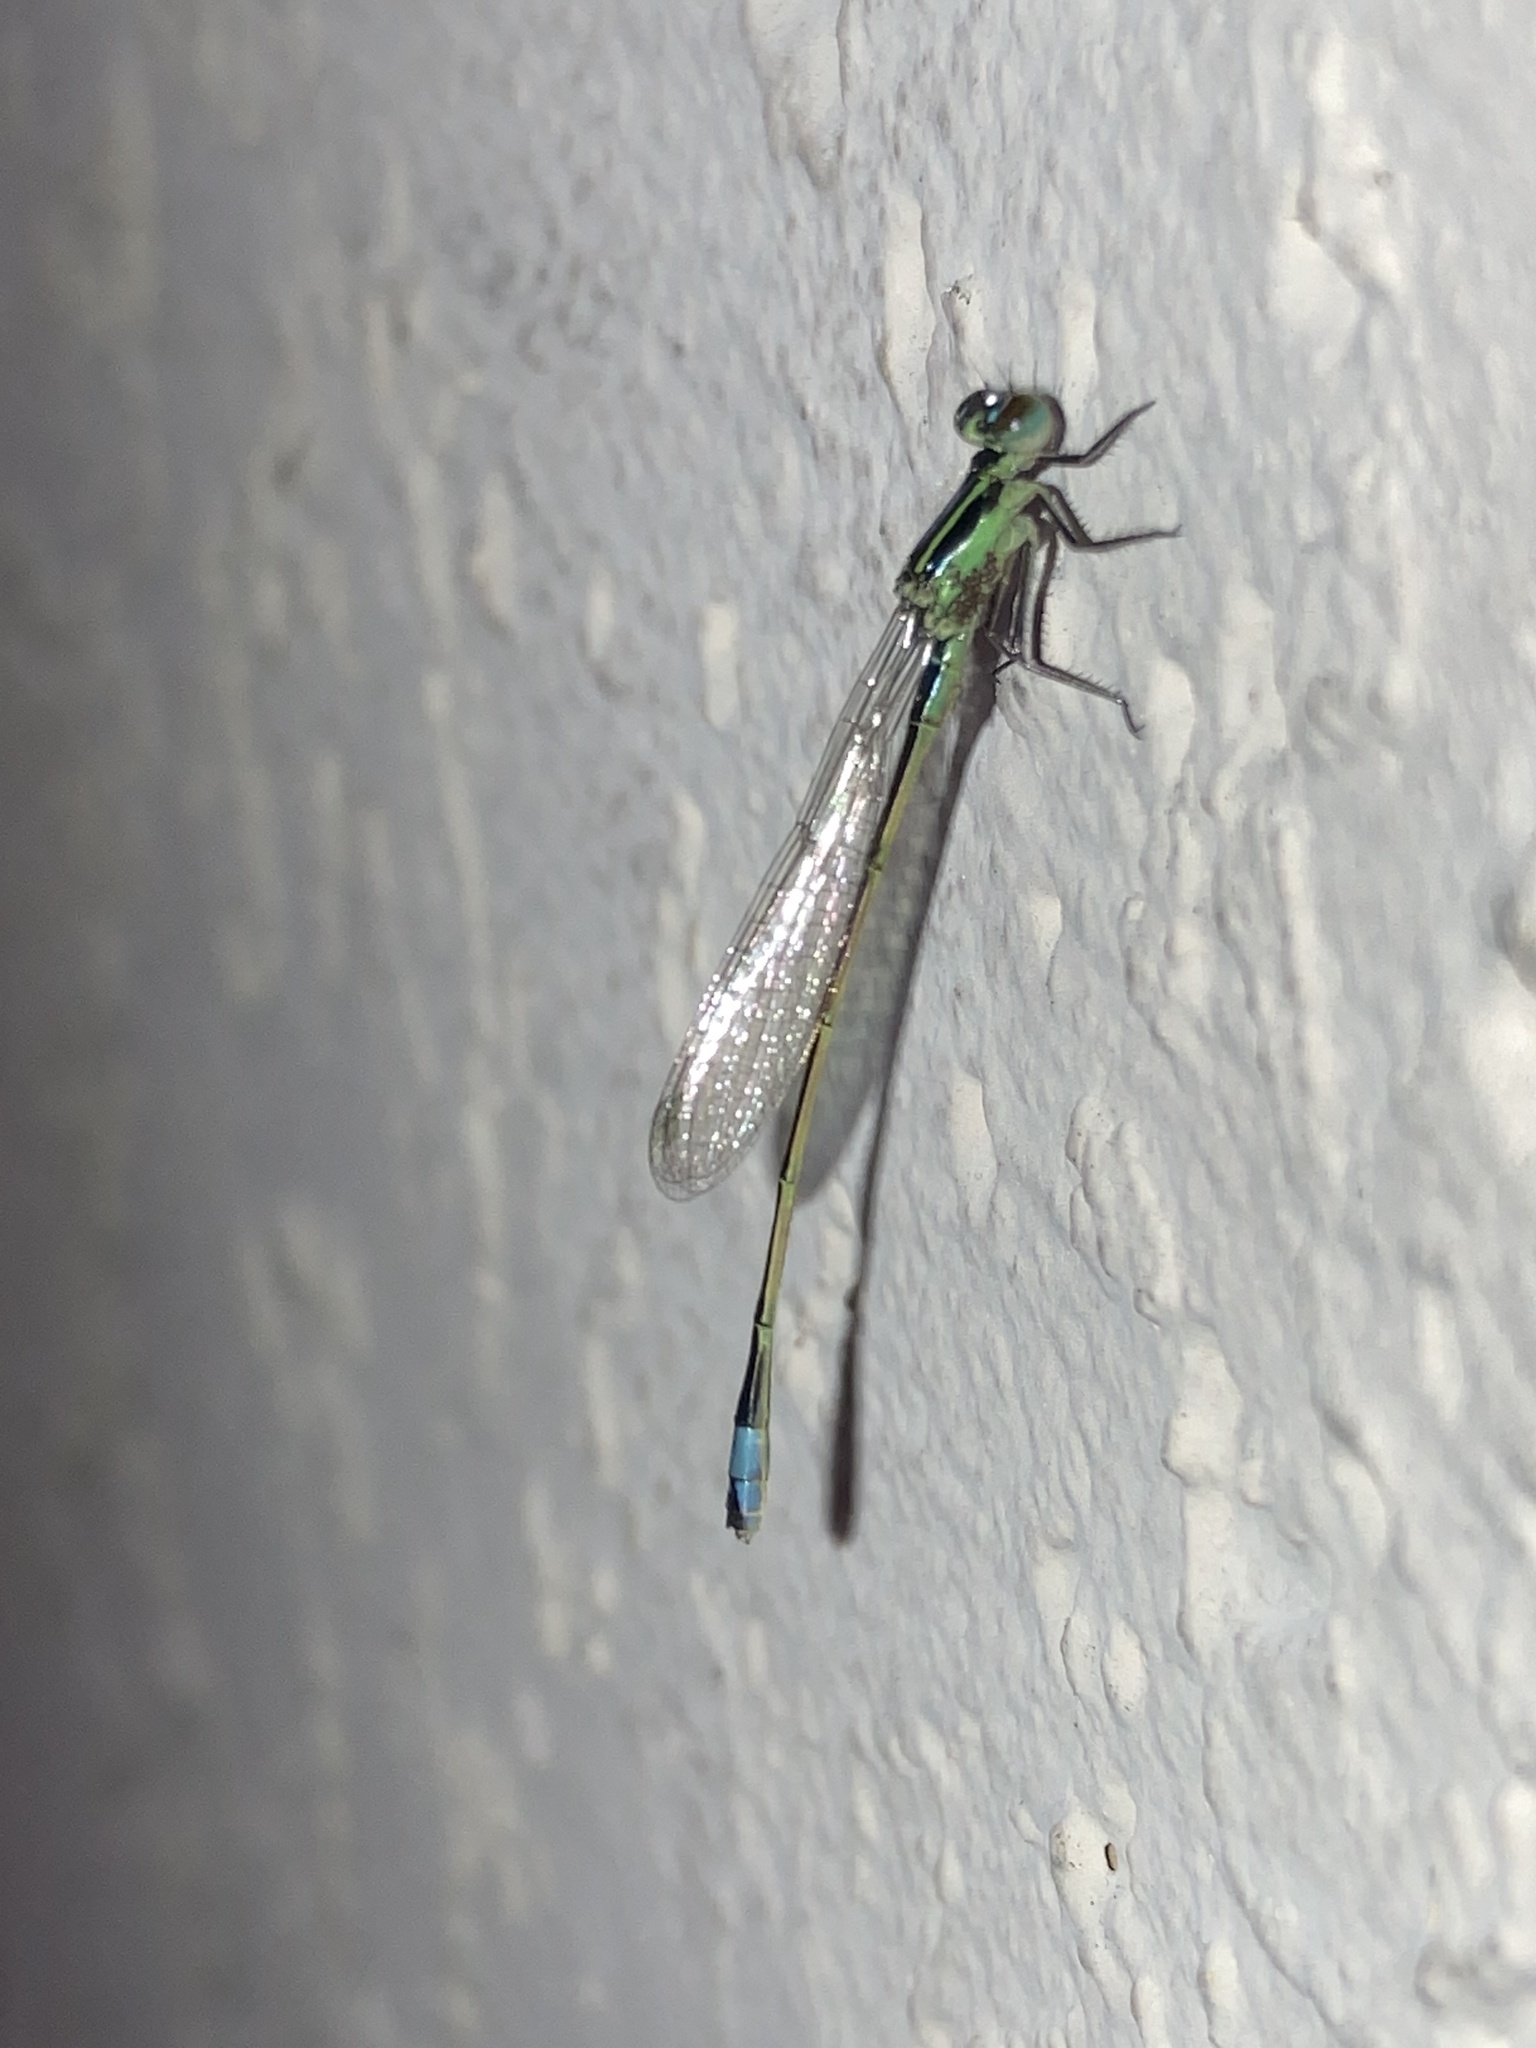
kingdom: Animalia
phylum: Arthropoda
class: Insecta
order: Odonata
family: Coenagrionidae
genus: Ischnura
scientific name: Ischnura ramburii
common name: Rambur's forktail
